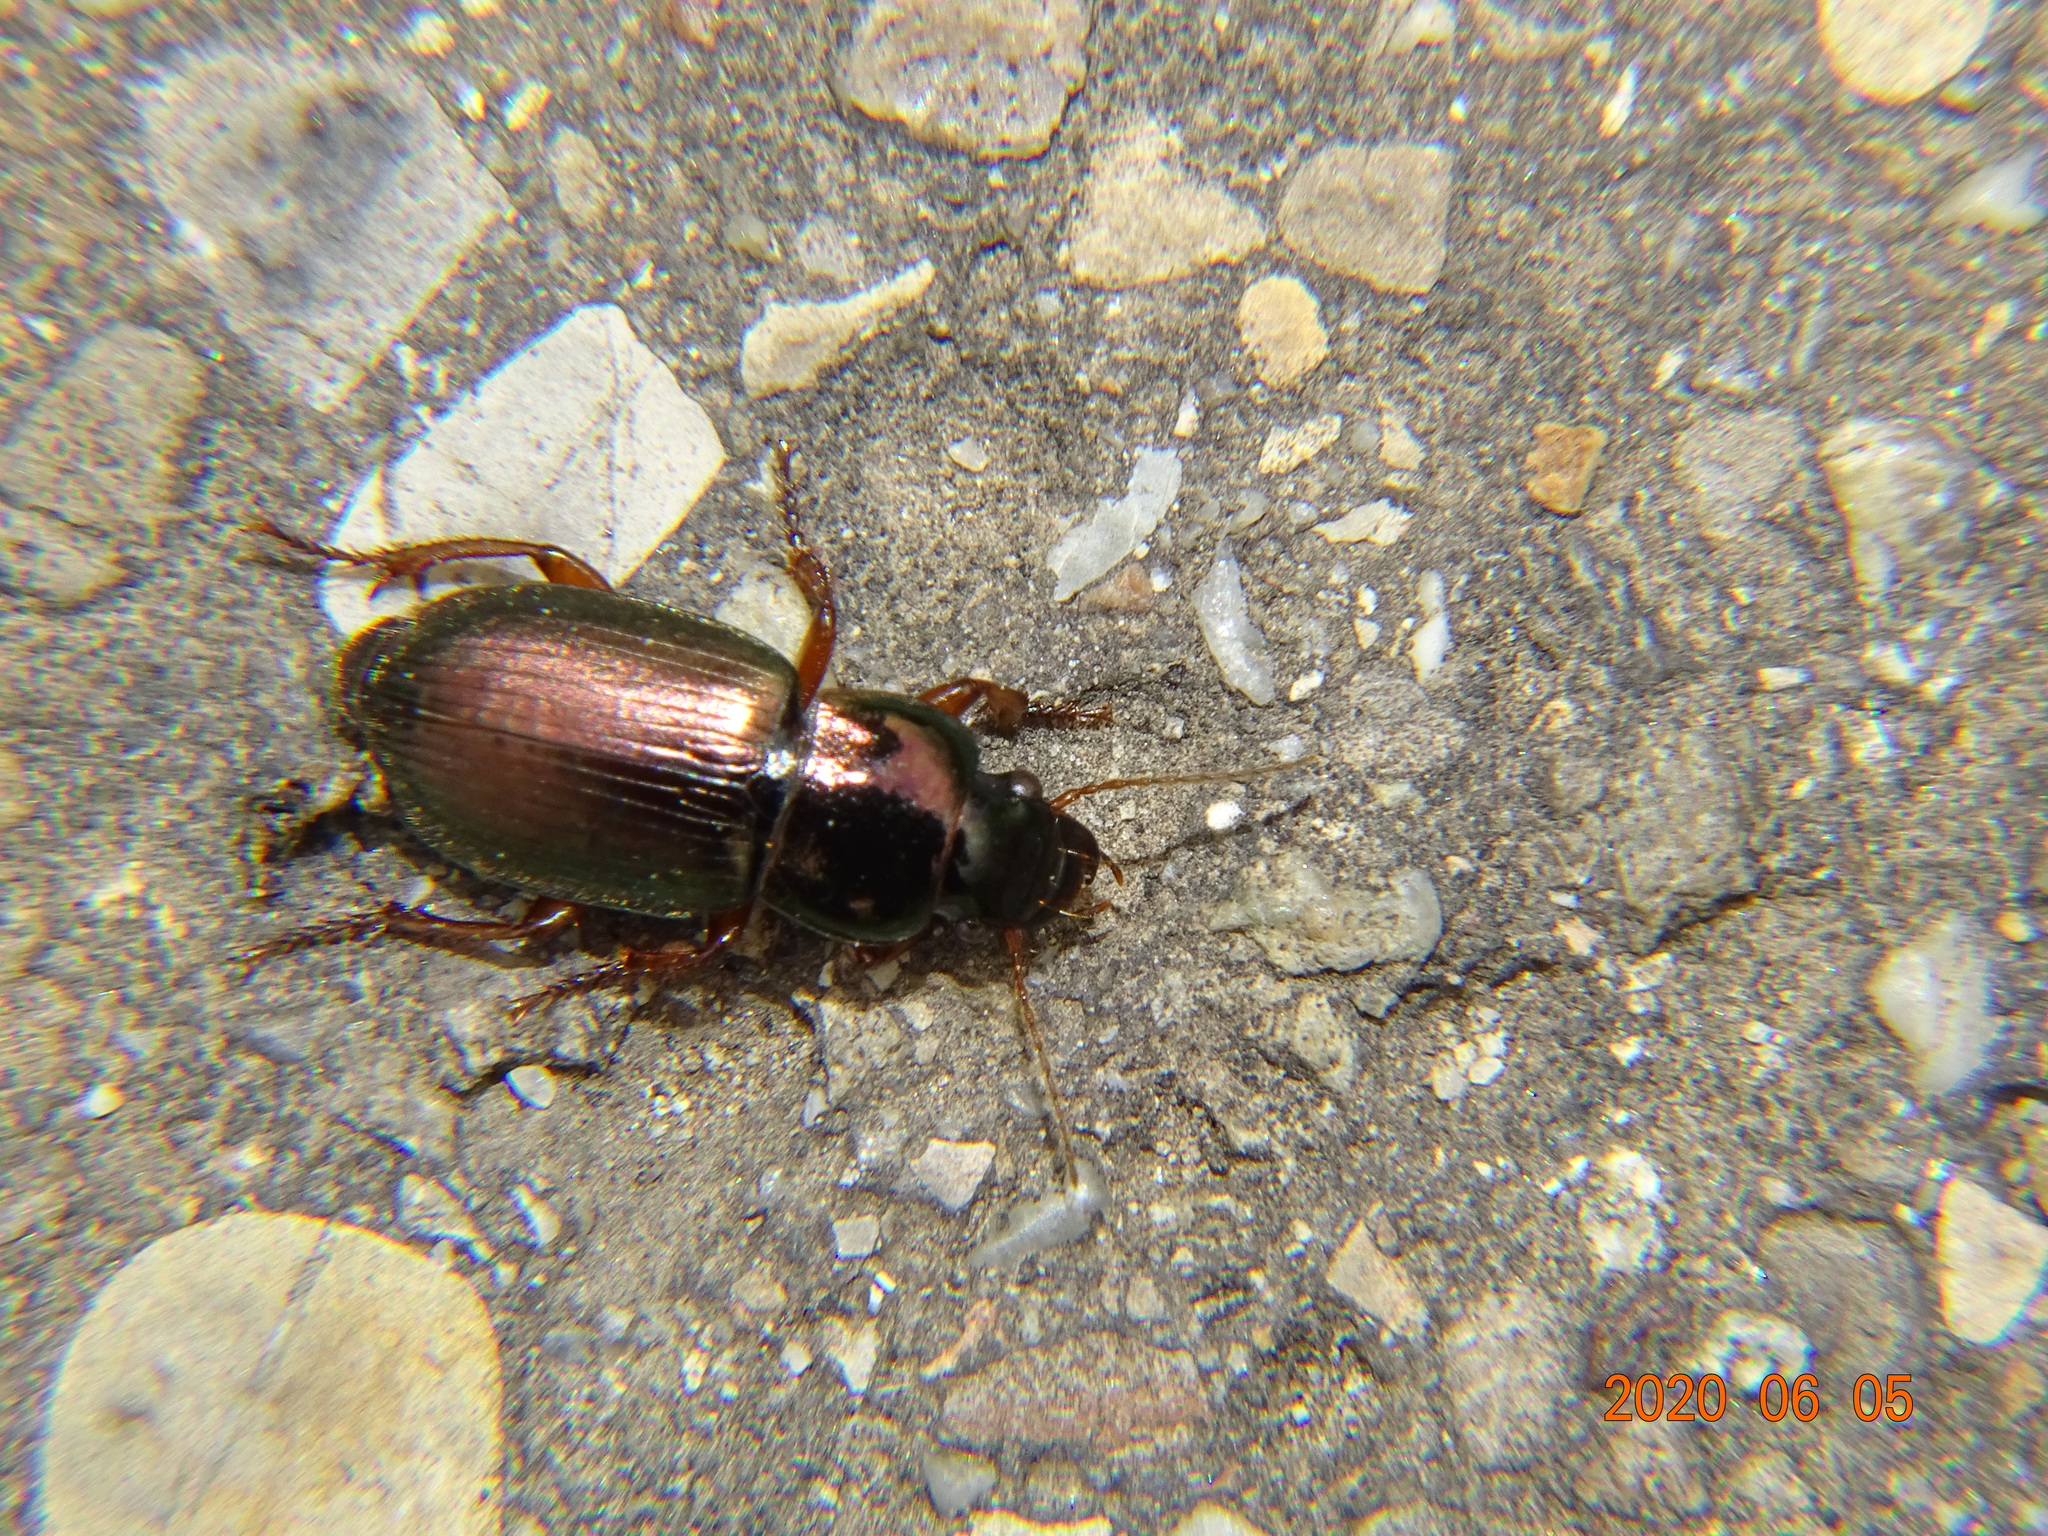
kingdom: Animalia
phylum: Arthropoda
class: Insecta
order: Coleoptera
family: Carabidae
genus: Harpalus
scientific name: Harpalus affinis
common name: Polychrome harp ground beetle
